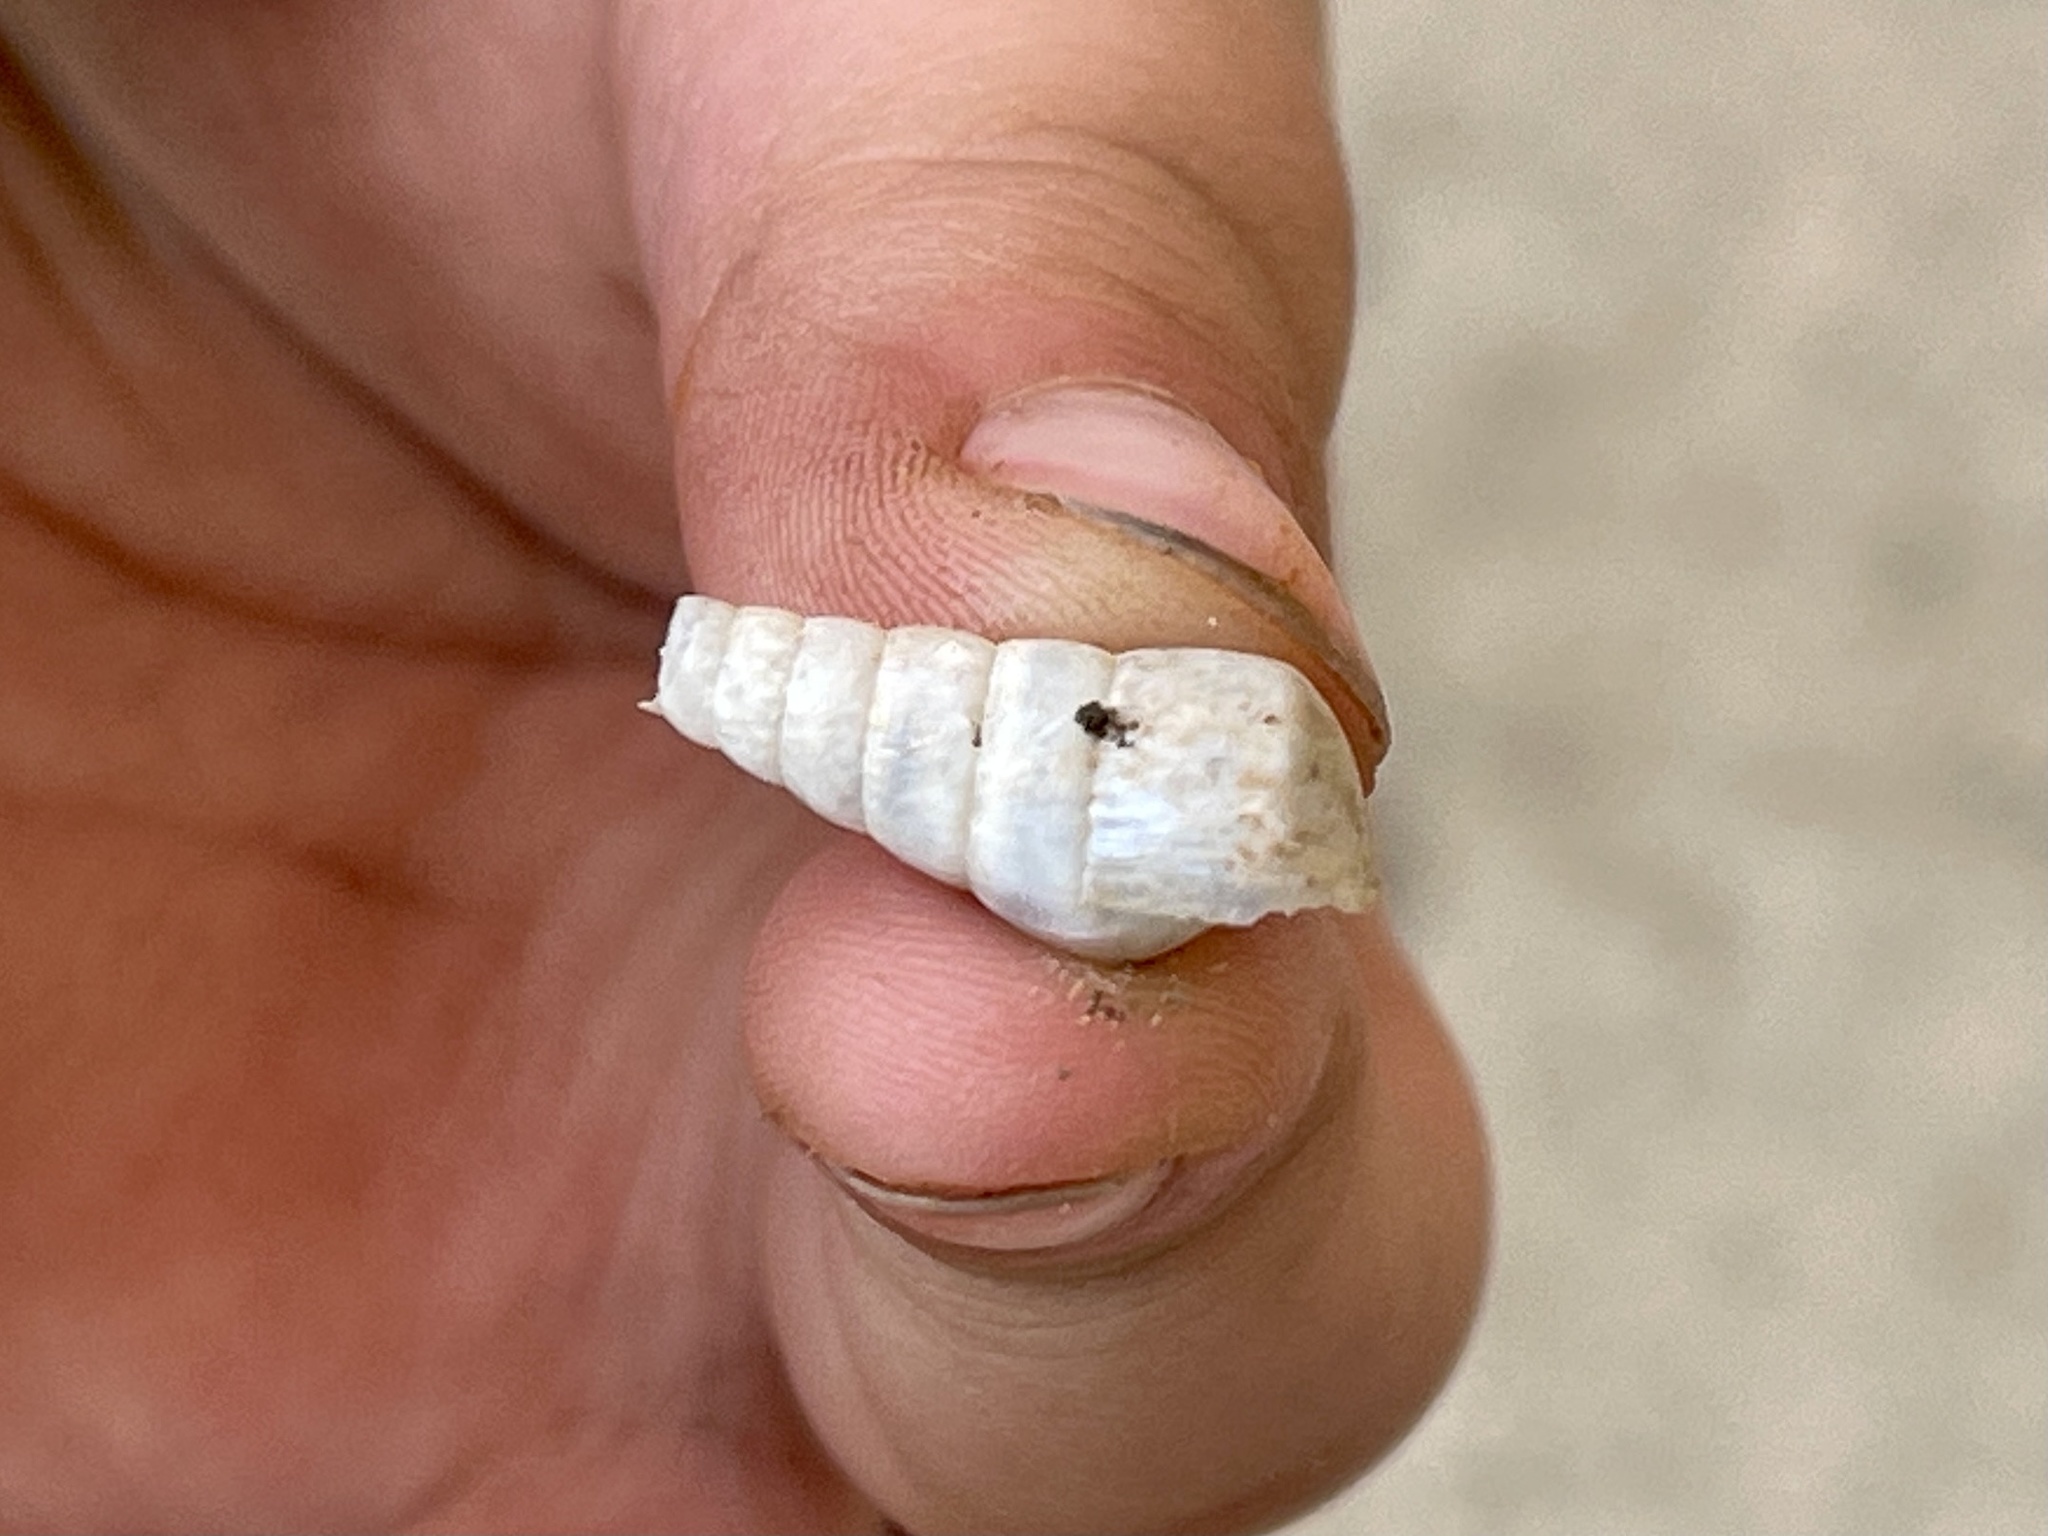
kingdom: Animalia
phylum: Mollusca
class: Gastropoda
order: Stylommatophora
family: Achatinidae
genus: Rumina
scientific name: Rumina decollata
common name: Decollate snail
